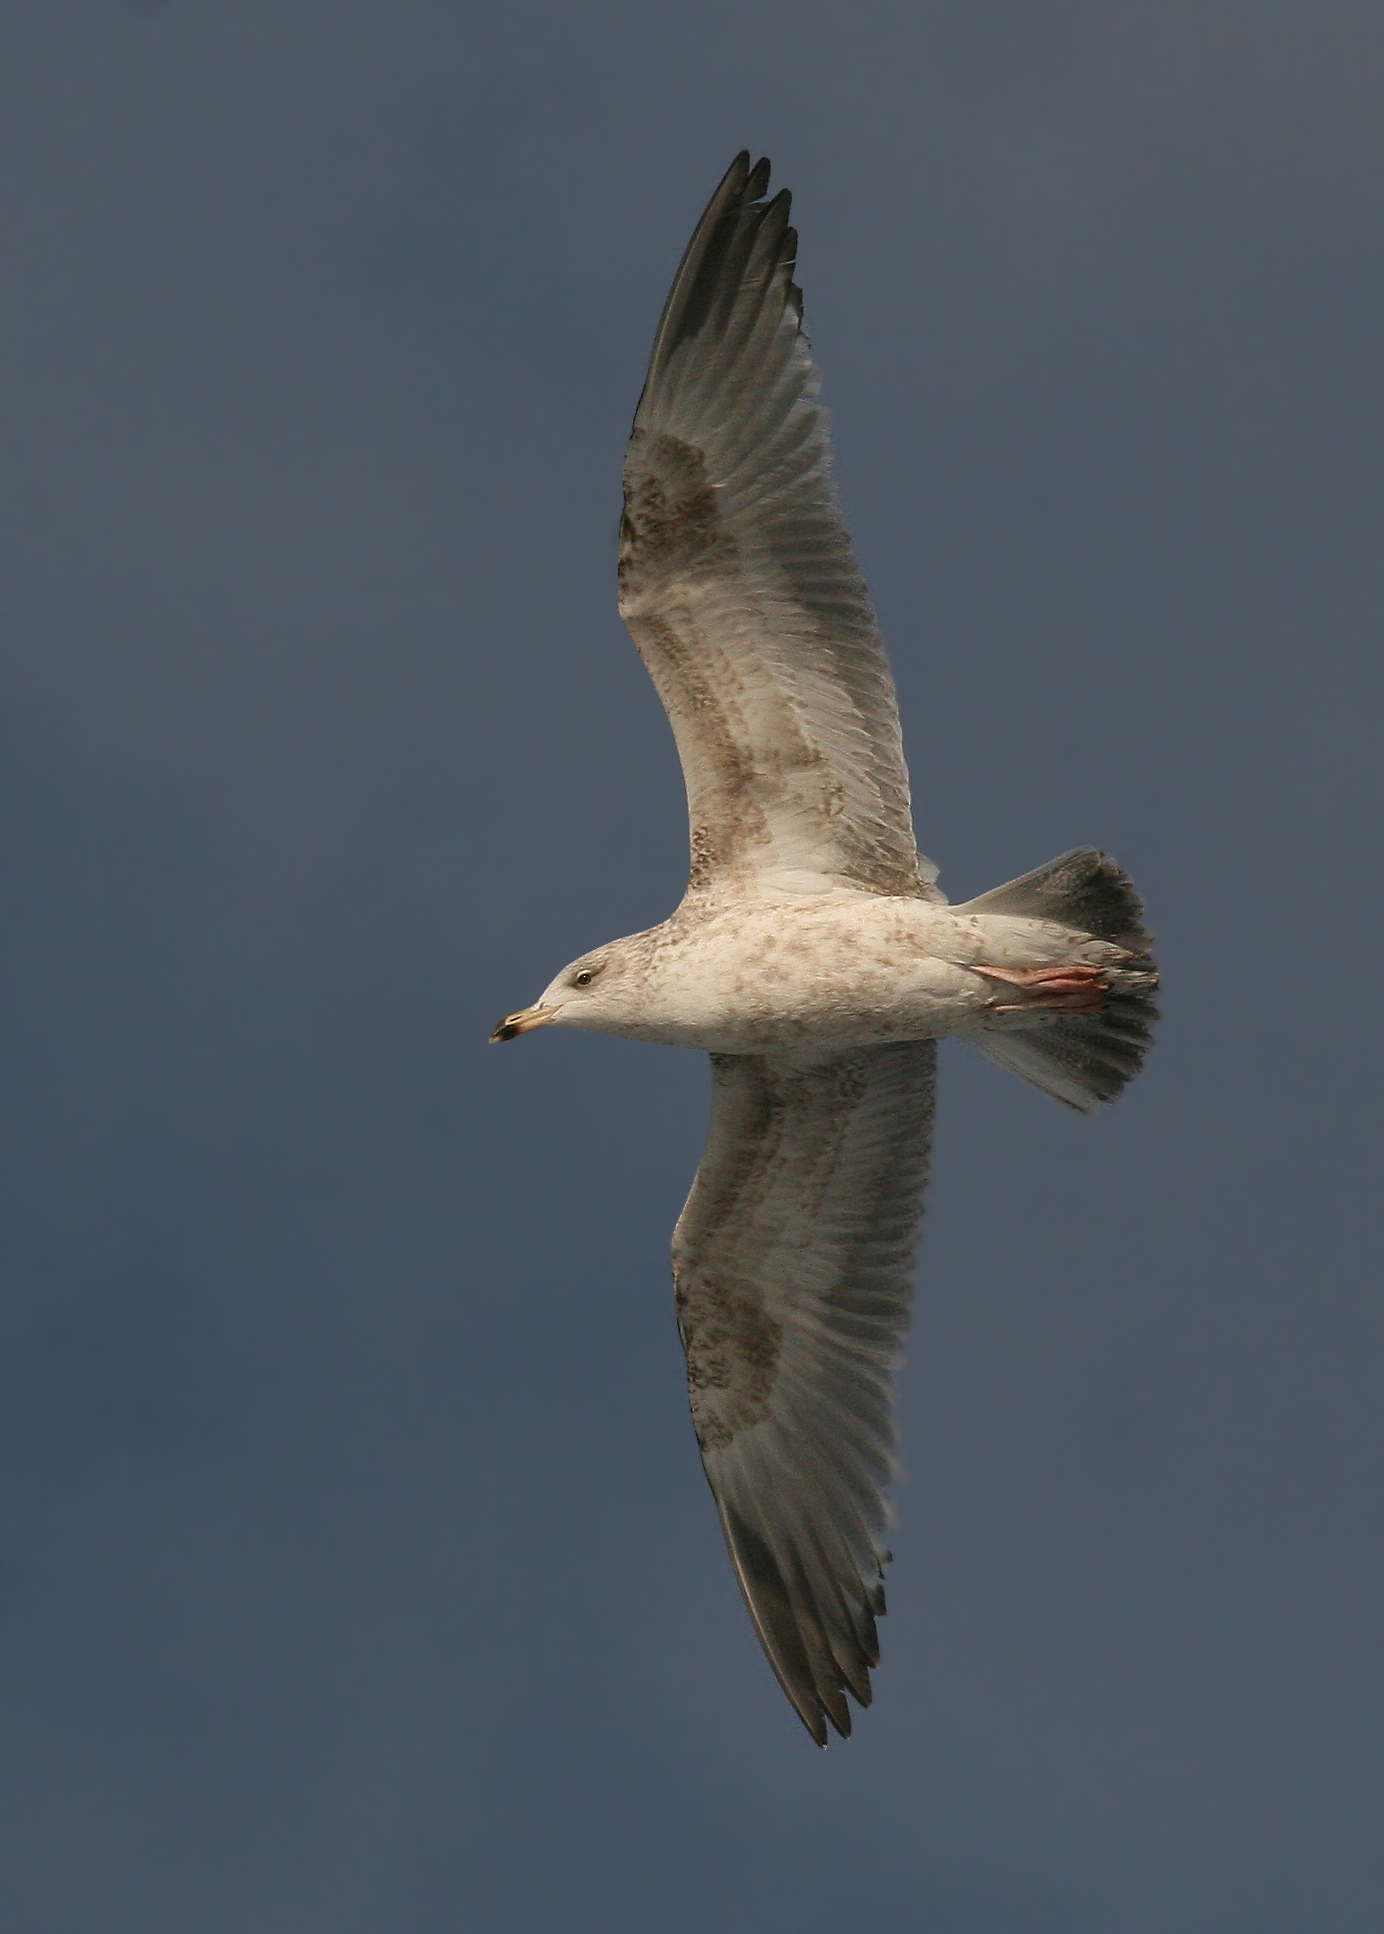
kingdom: Animalia
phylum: Chordata
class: Aves
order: Charadriiformes
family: Laridae
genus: Larus
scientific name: Larus argentatus
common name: Herring gull
